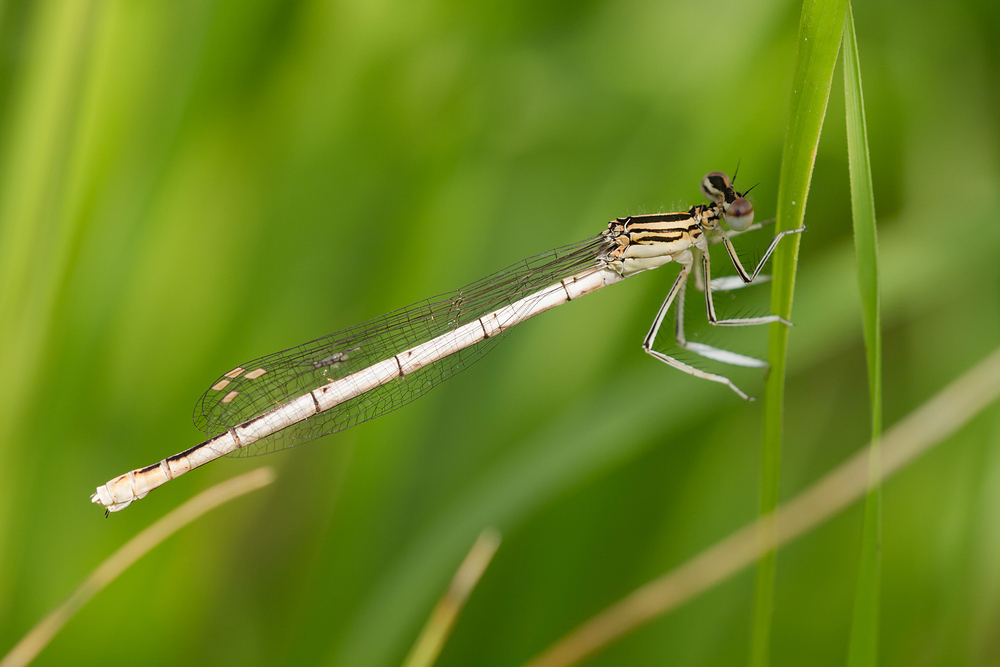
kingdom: Animalia
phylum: Arthropoda
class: Insecta
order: Odonata
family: Platycnemididae
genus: Platycnemis
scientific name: Platycnemis pennipes
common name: White-legged damselfly
